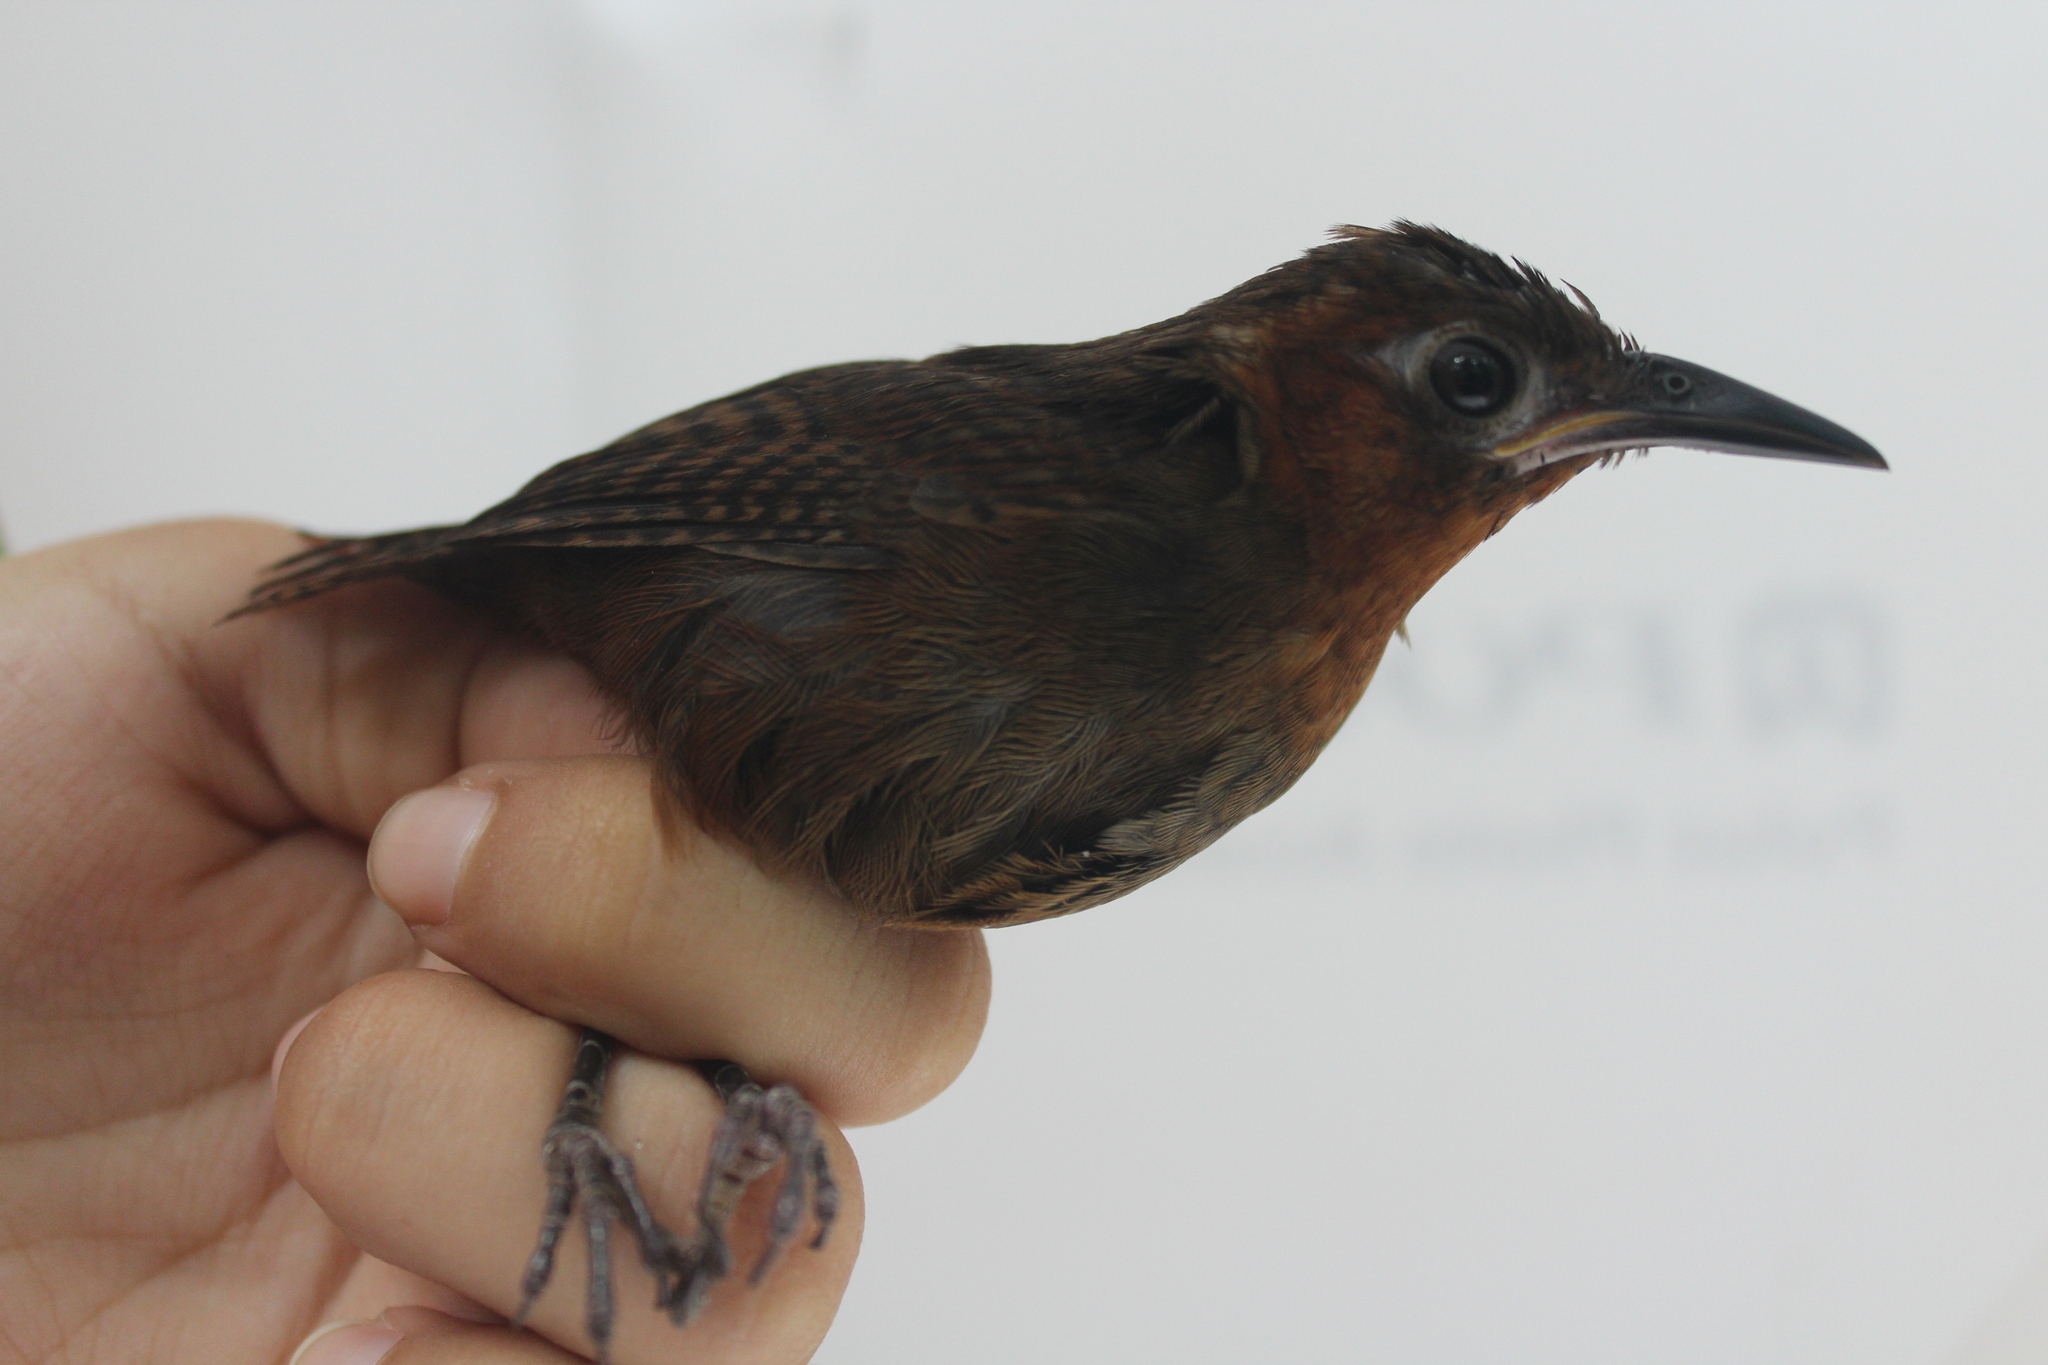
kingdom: Animalia
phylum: Chordata
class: Aves
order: Passeriformes
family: Troglodytidae
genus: Cyphorhinus
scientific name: Cyphorhinus phaeocephalus
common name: Song wren
